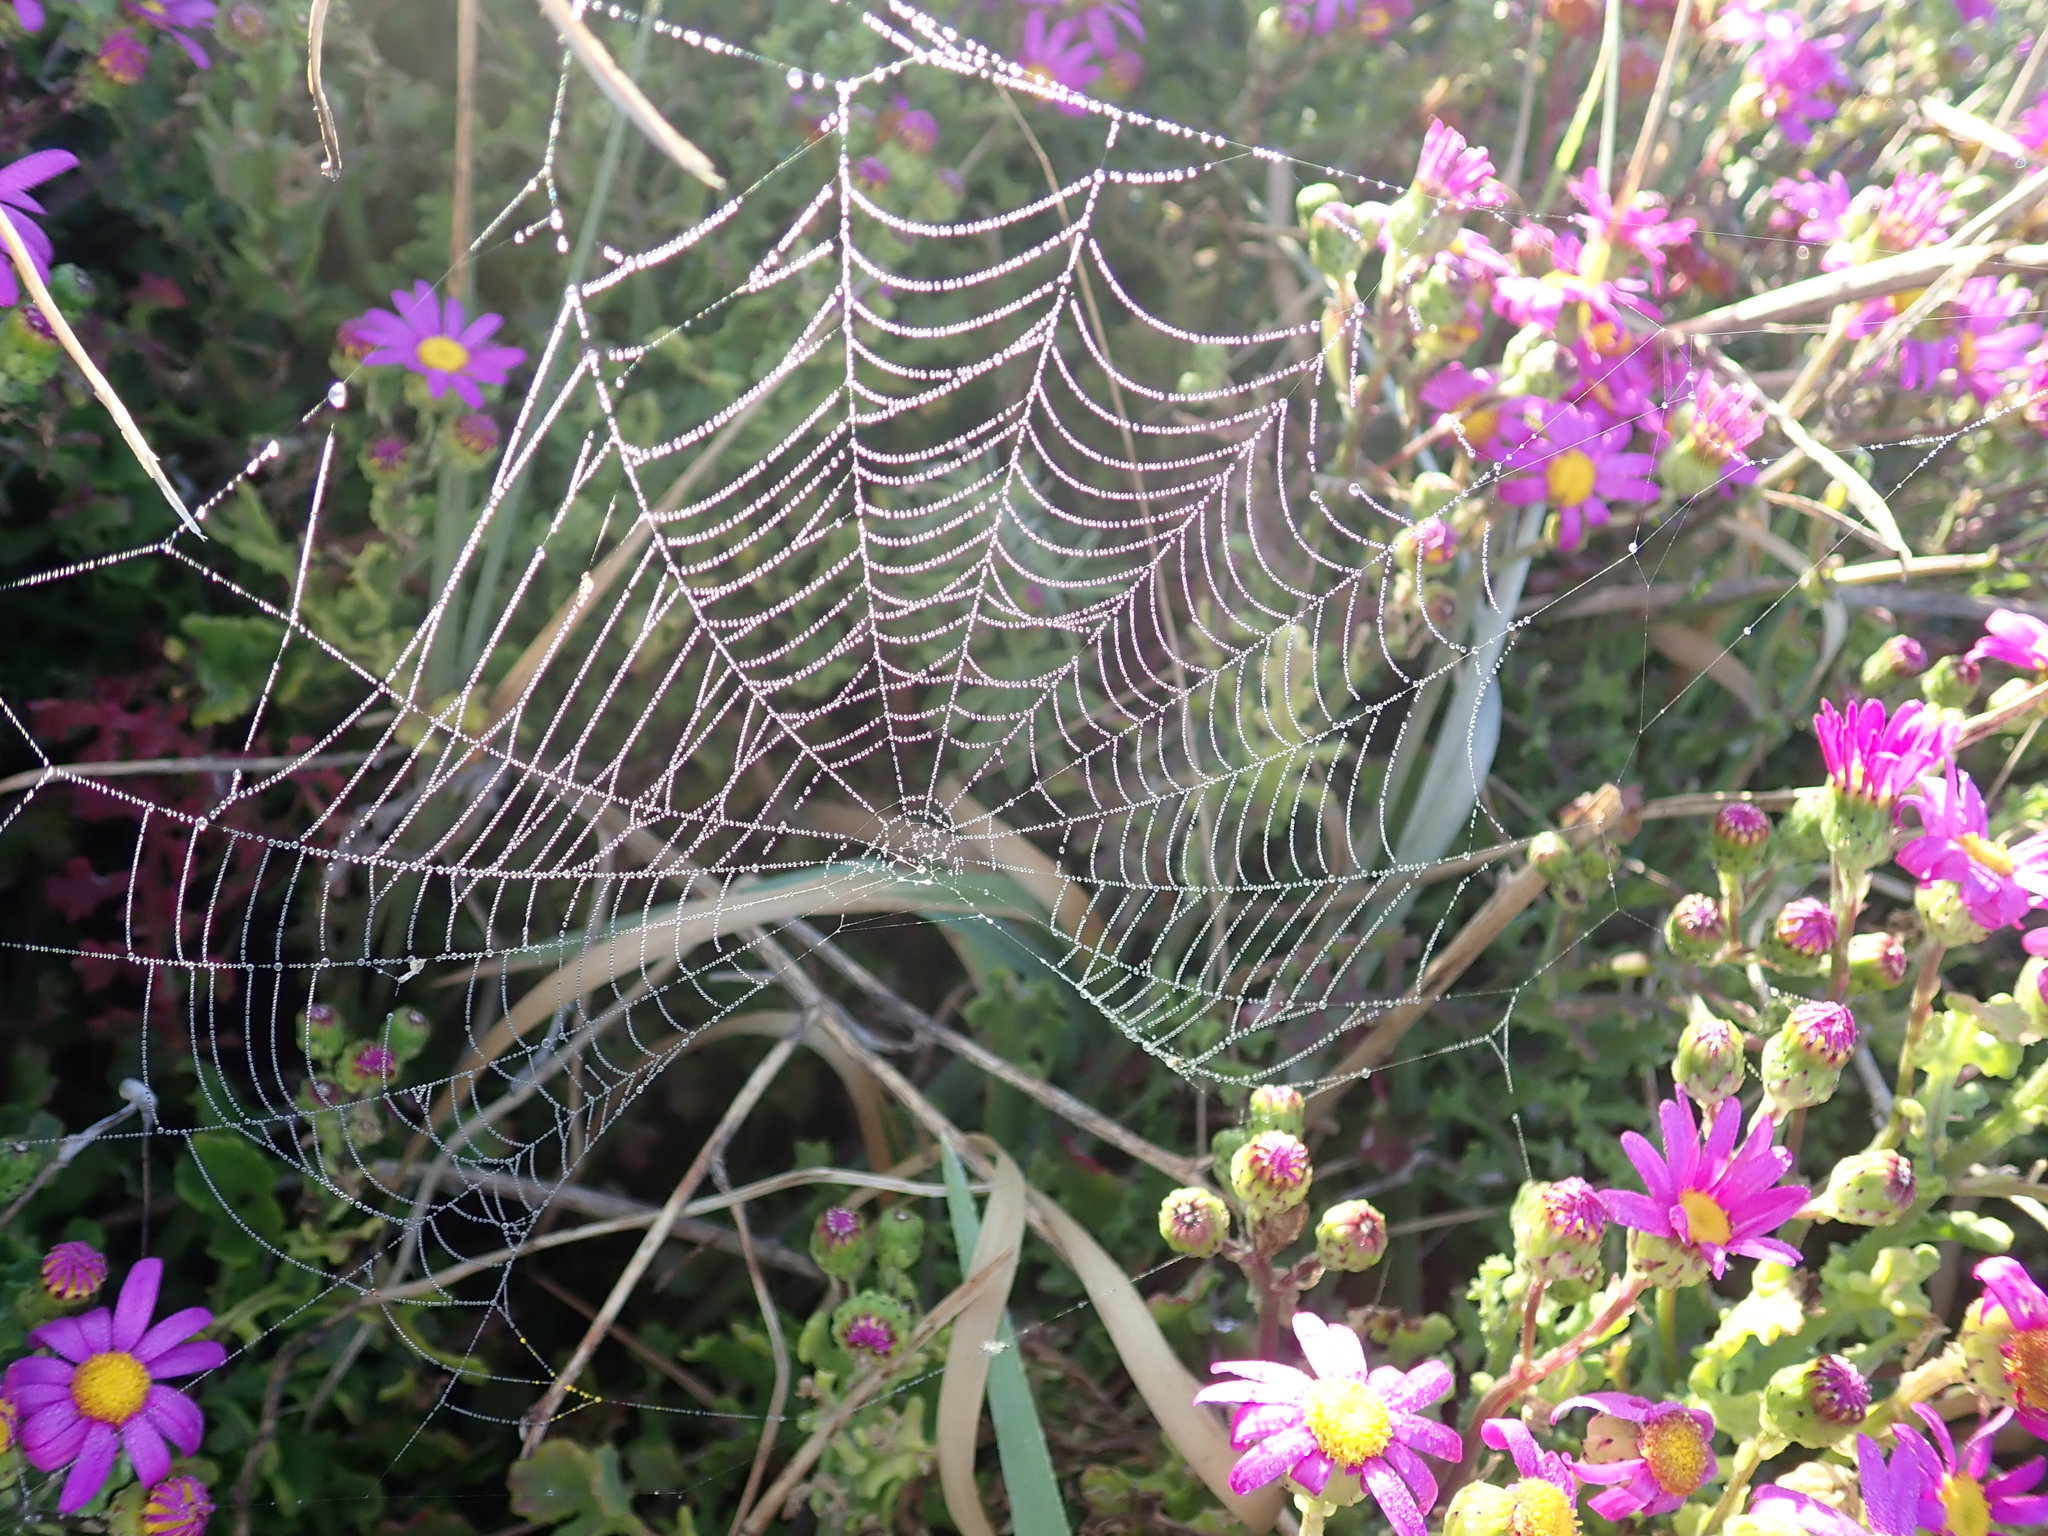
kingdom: Plantae
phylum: Tracheophyta
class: Magnoliopsida
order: Asterales
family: Asteraceae
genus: Senecio
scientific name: Senecio elegans
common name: Purple groundsel
